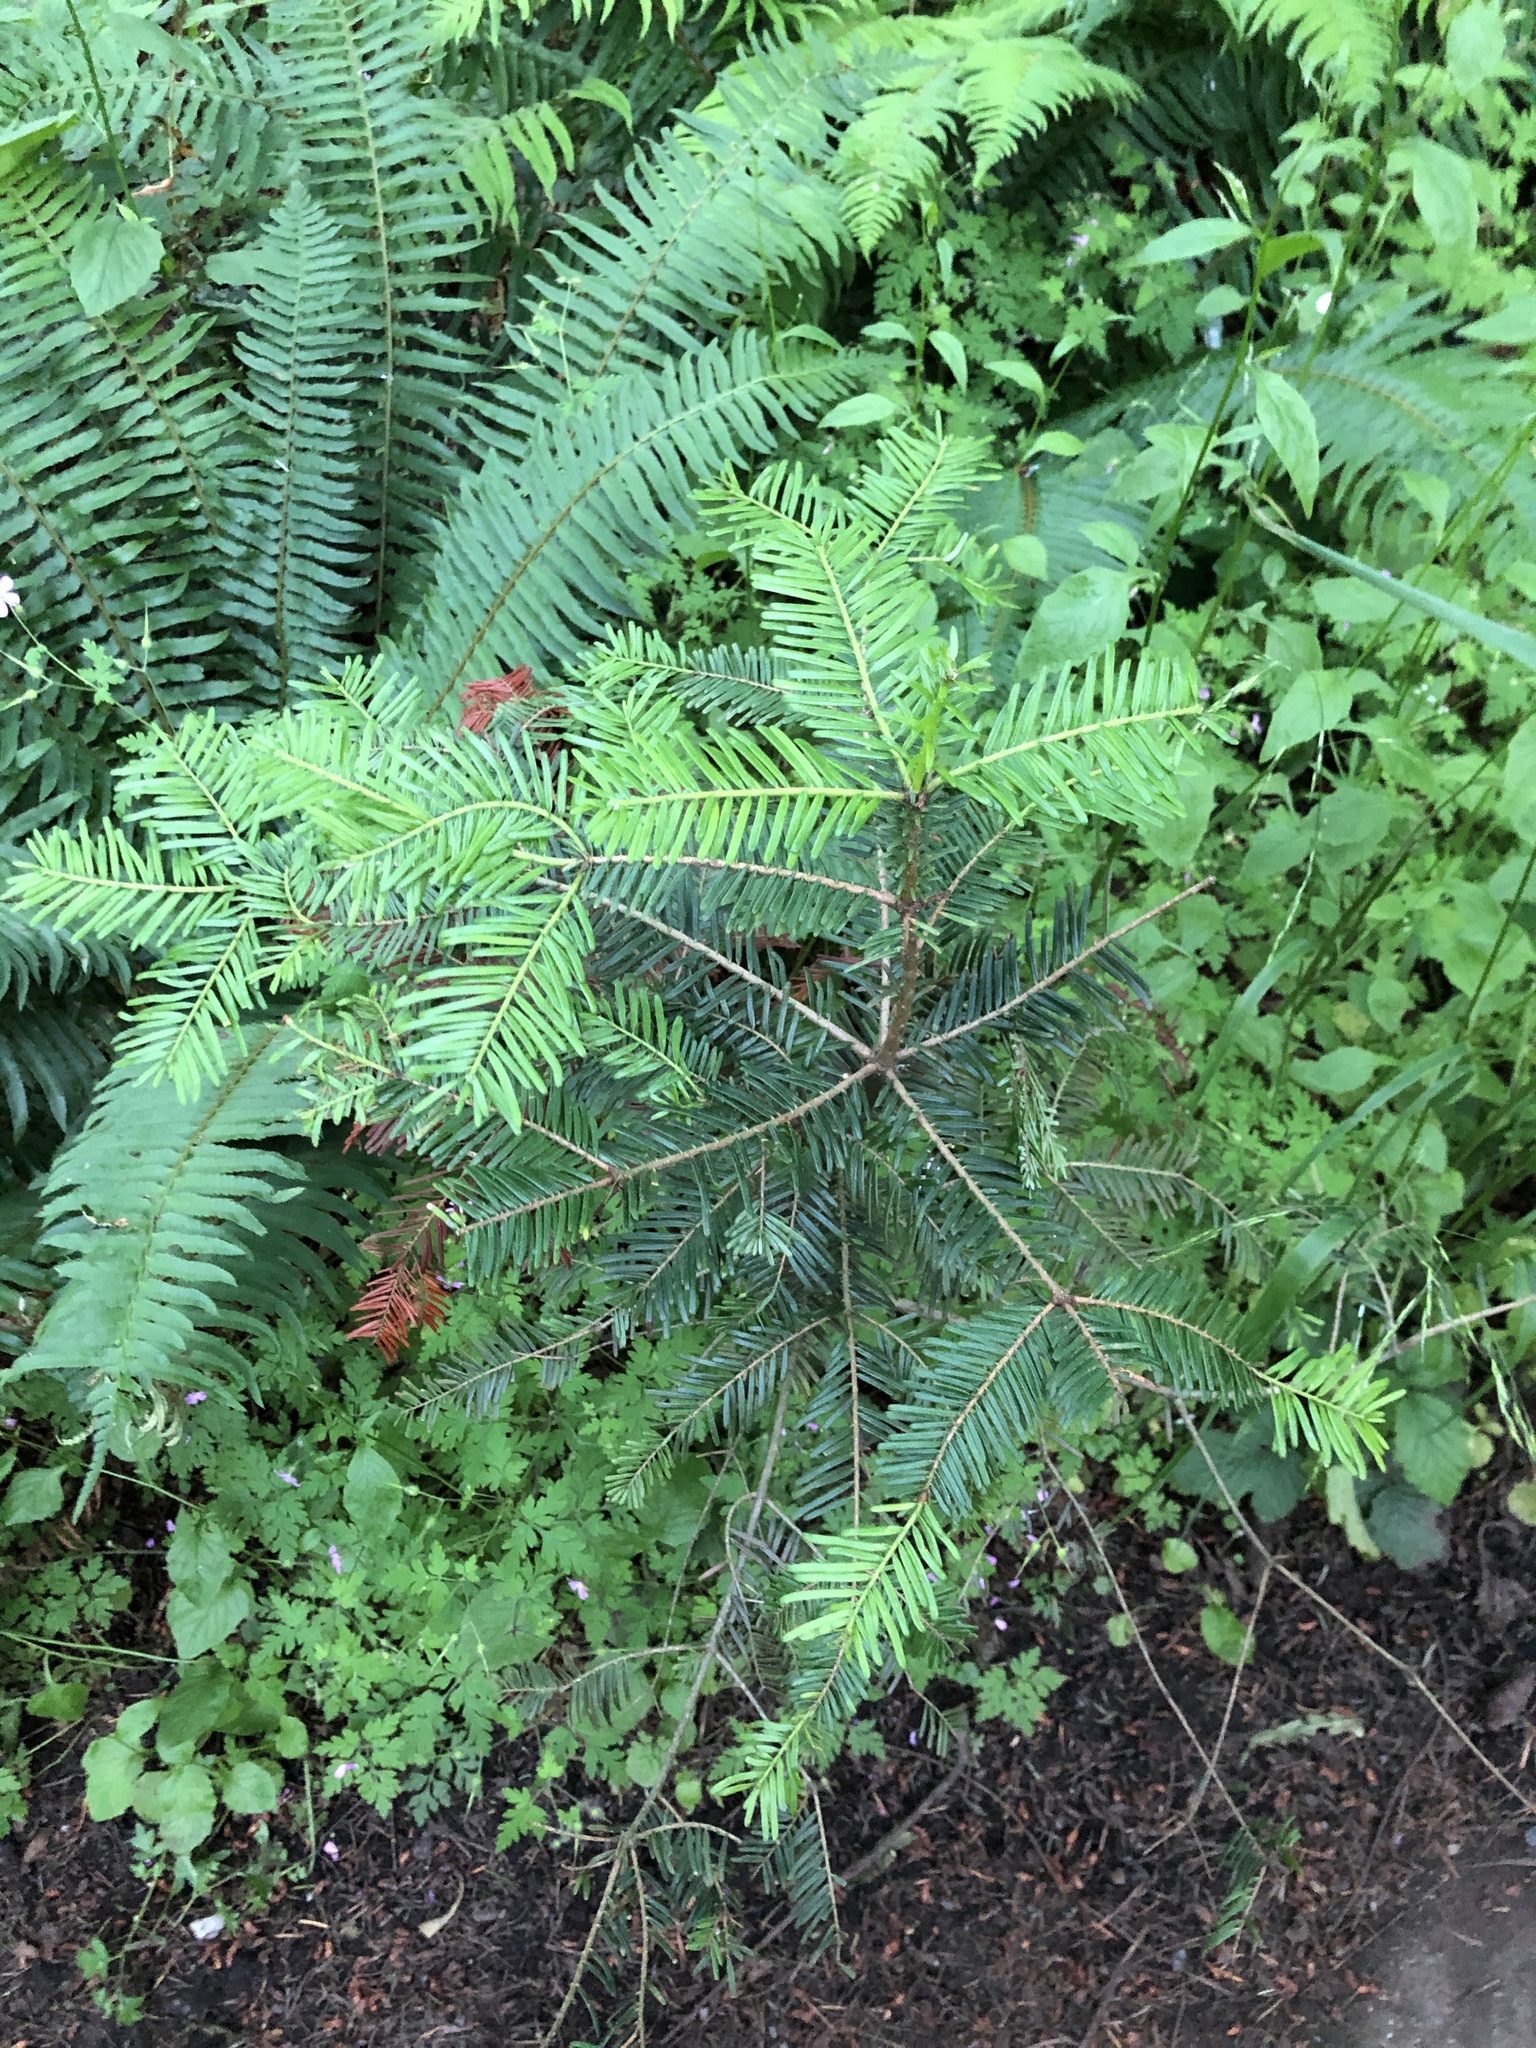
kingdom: Plantae
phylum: Tracheophyta
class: Pinopsida
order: Pinales
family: Pinaceae
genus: Abies
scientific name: Abies grandis
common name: Giant fir
